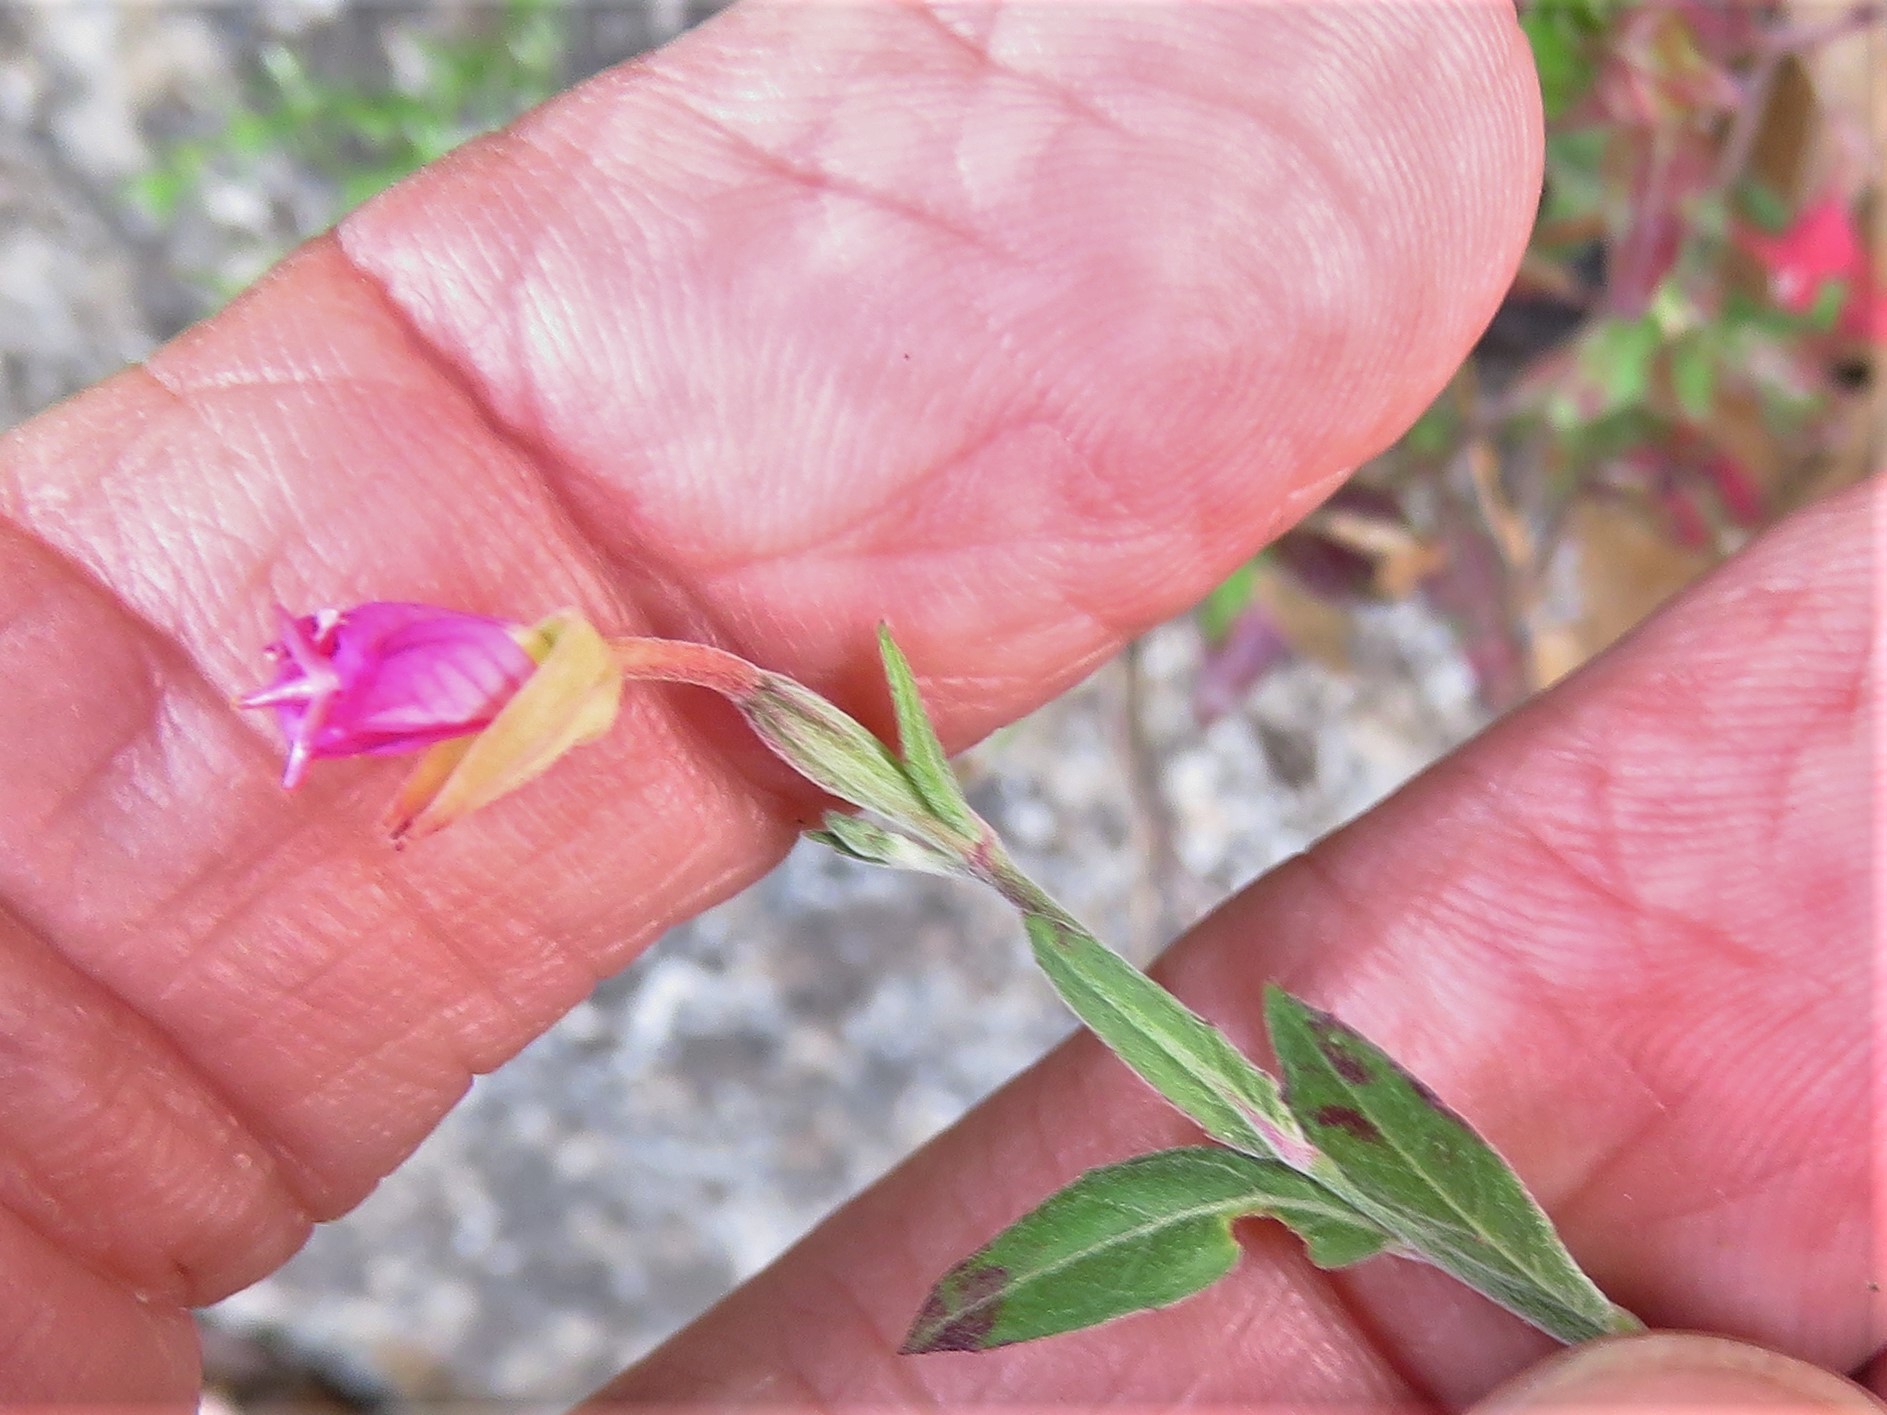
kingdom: Plantae
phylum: Tracheophyta
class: Magnoliopsida
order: Myrtales
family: Onagraceae
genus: Oenothera
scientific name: Oenothera rosea
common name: Rosy evening-primrose
